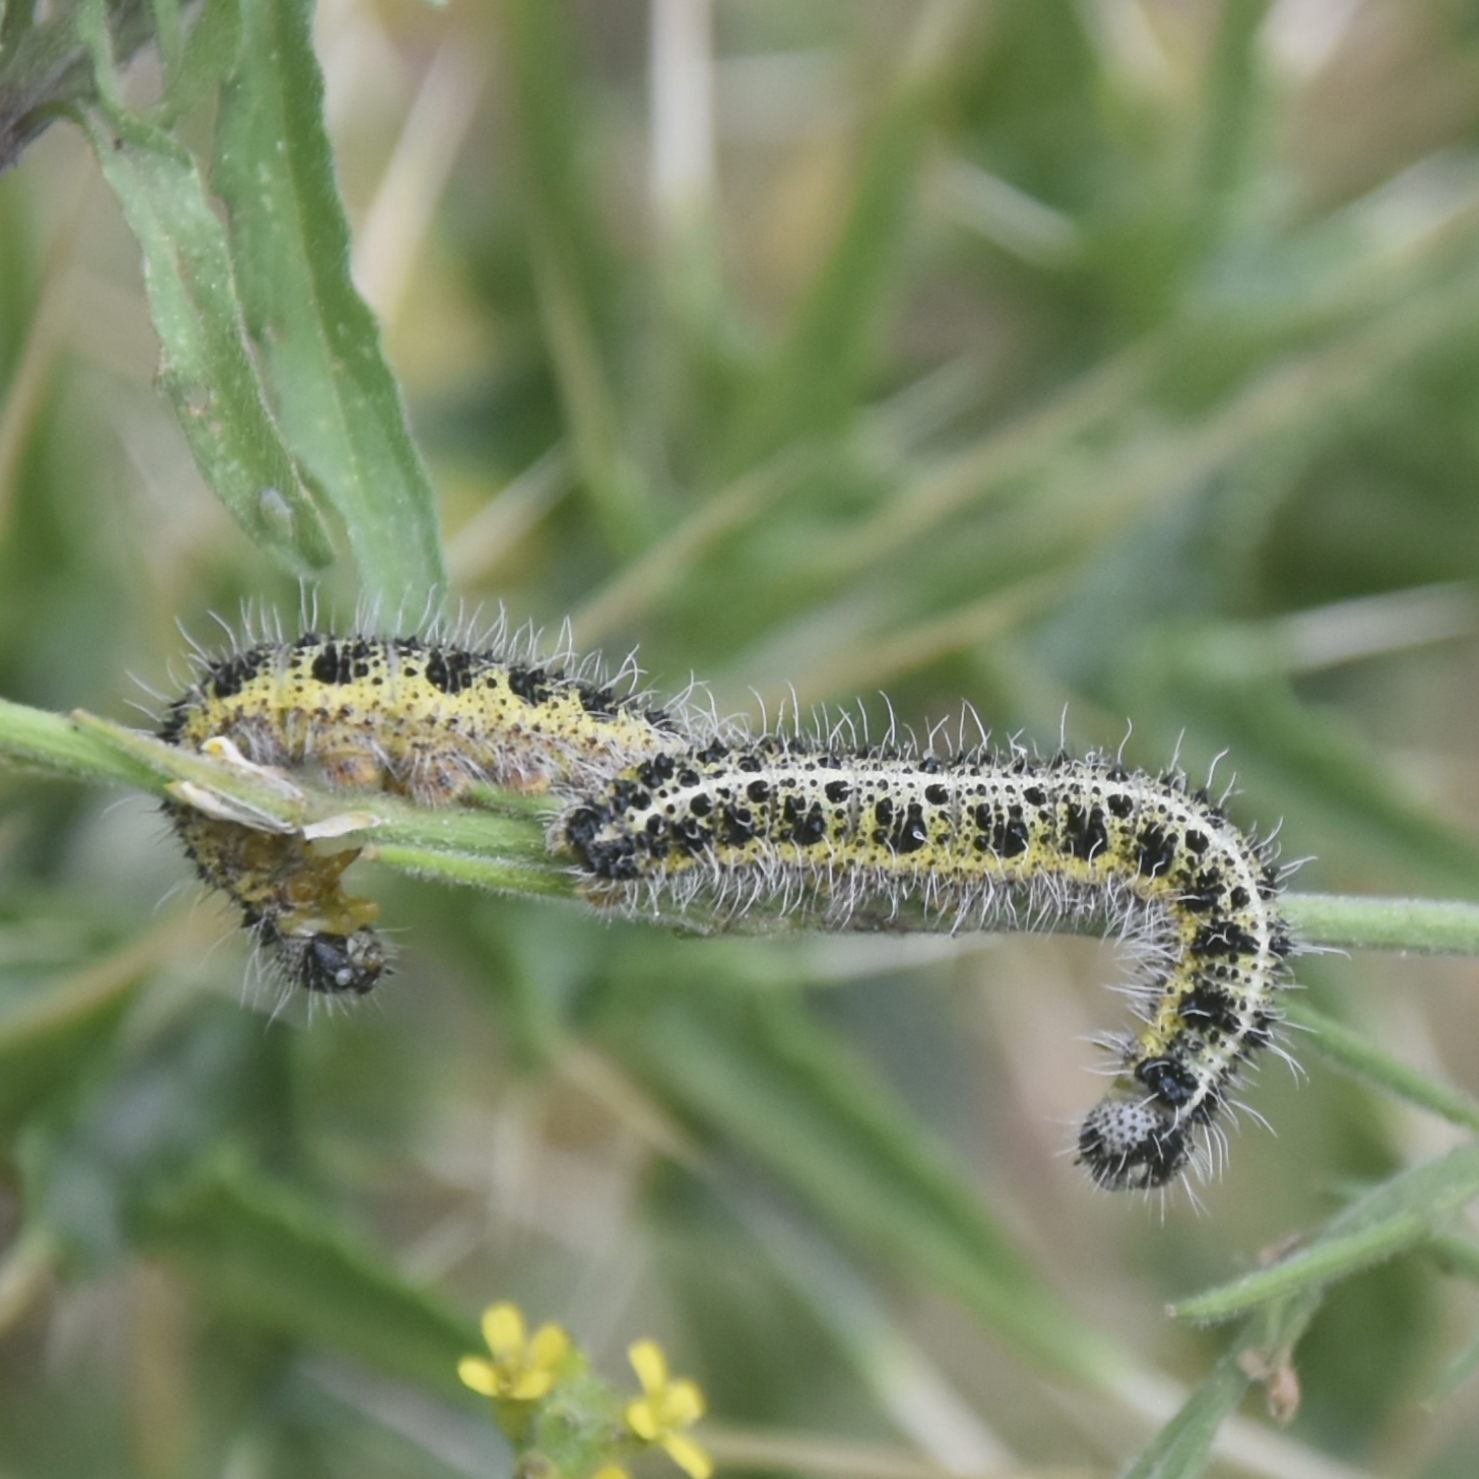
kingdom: Animalia
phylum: Arthropoda
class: Insecta
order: Lepidoptera
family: Pieridae
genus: Pieris
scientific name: Pieris brassicae
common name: Large white
